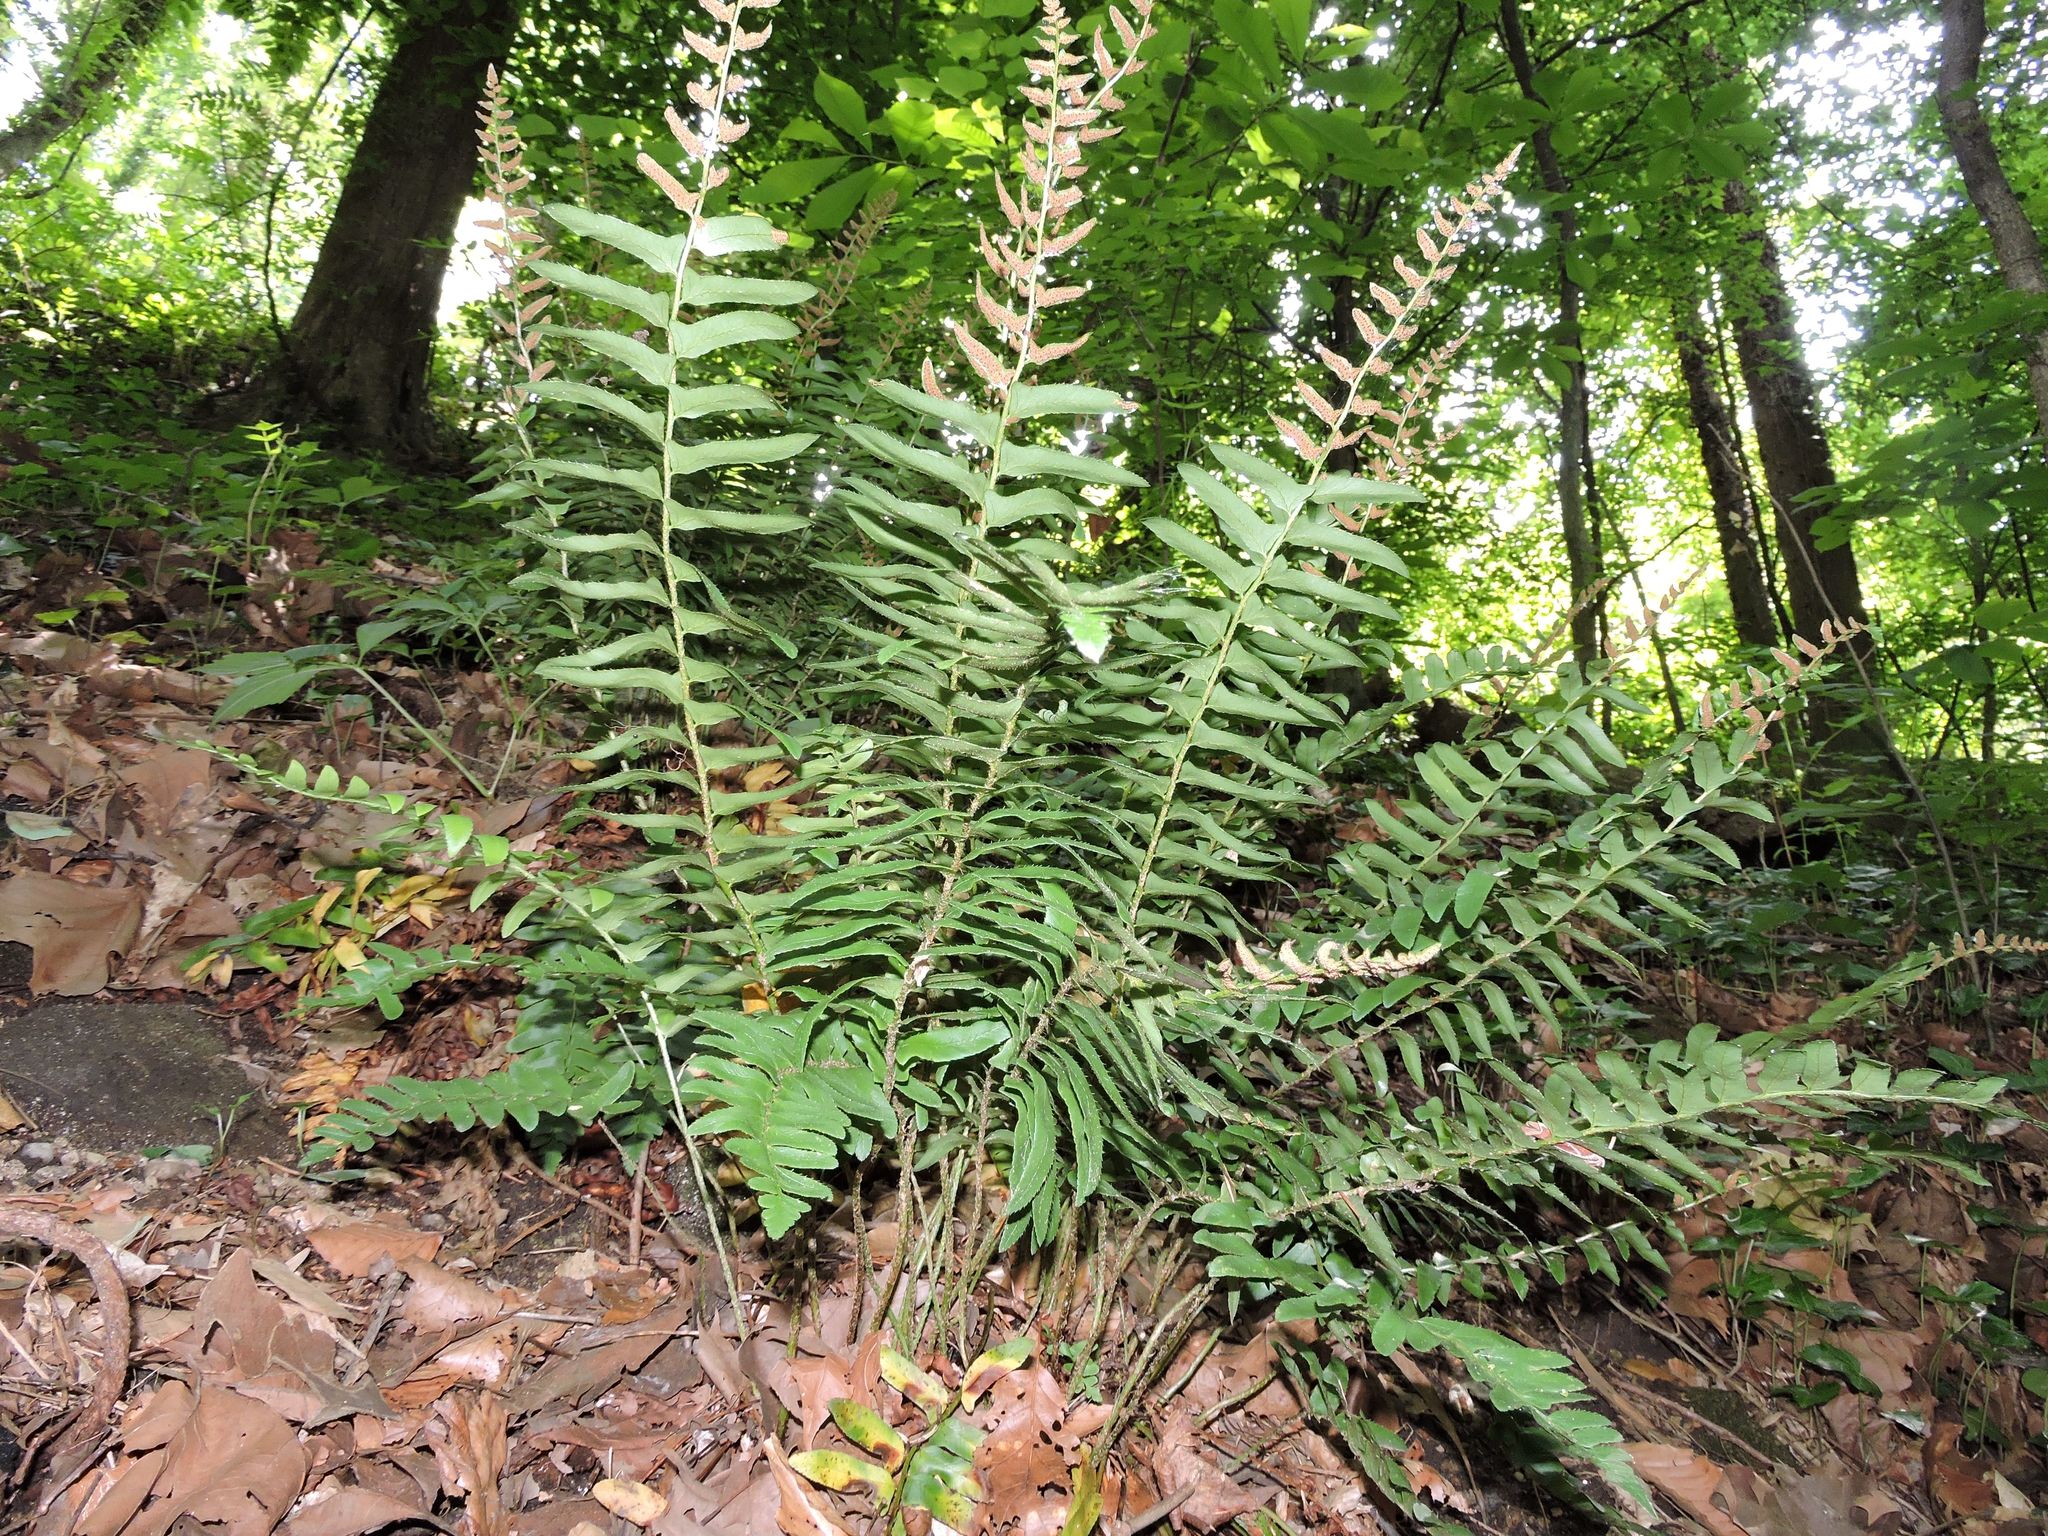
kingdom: Plantae
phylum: Tracheophyta
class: Polypodiopsida
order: Polypodiales
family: Dryopteridaceae
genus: Polystichum
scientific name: Polystichum acrostichoides
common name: Christmas fern
